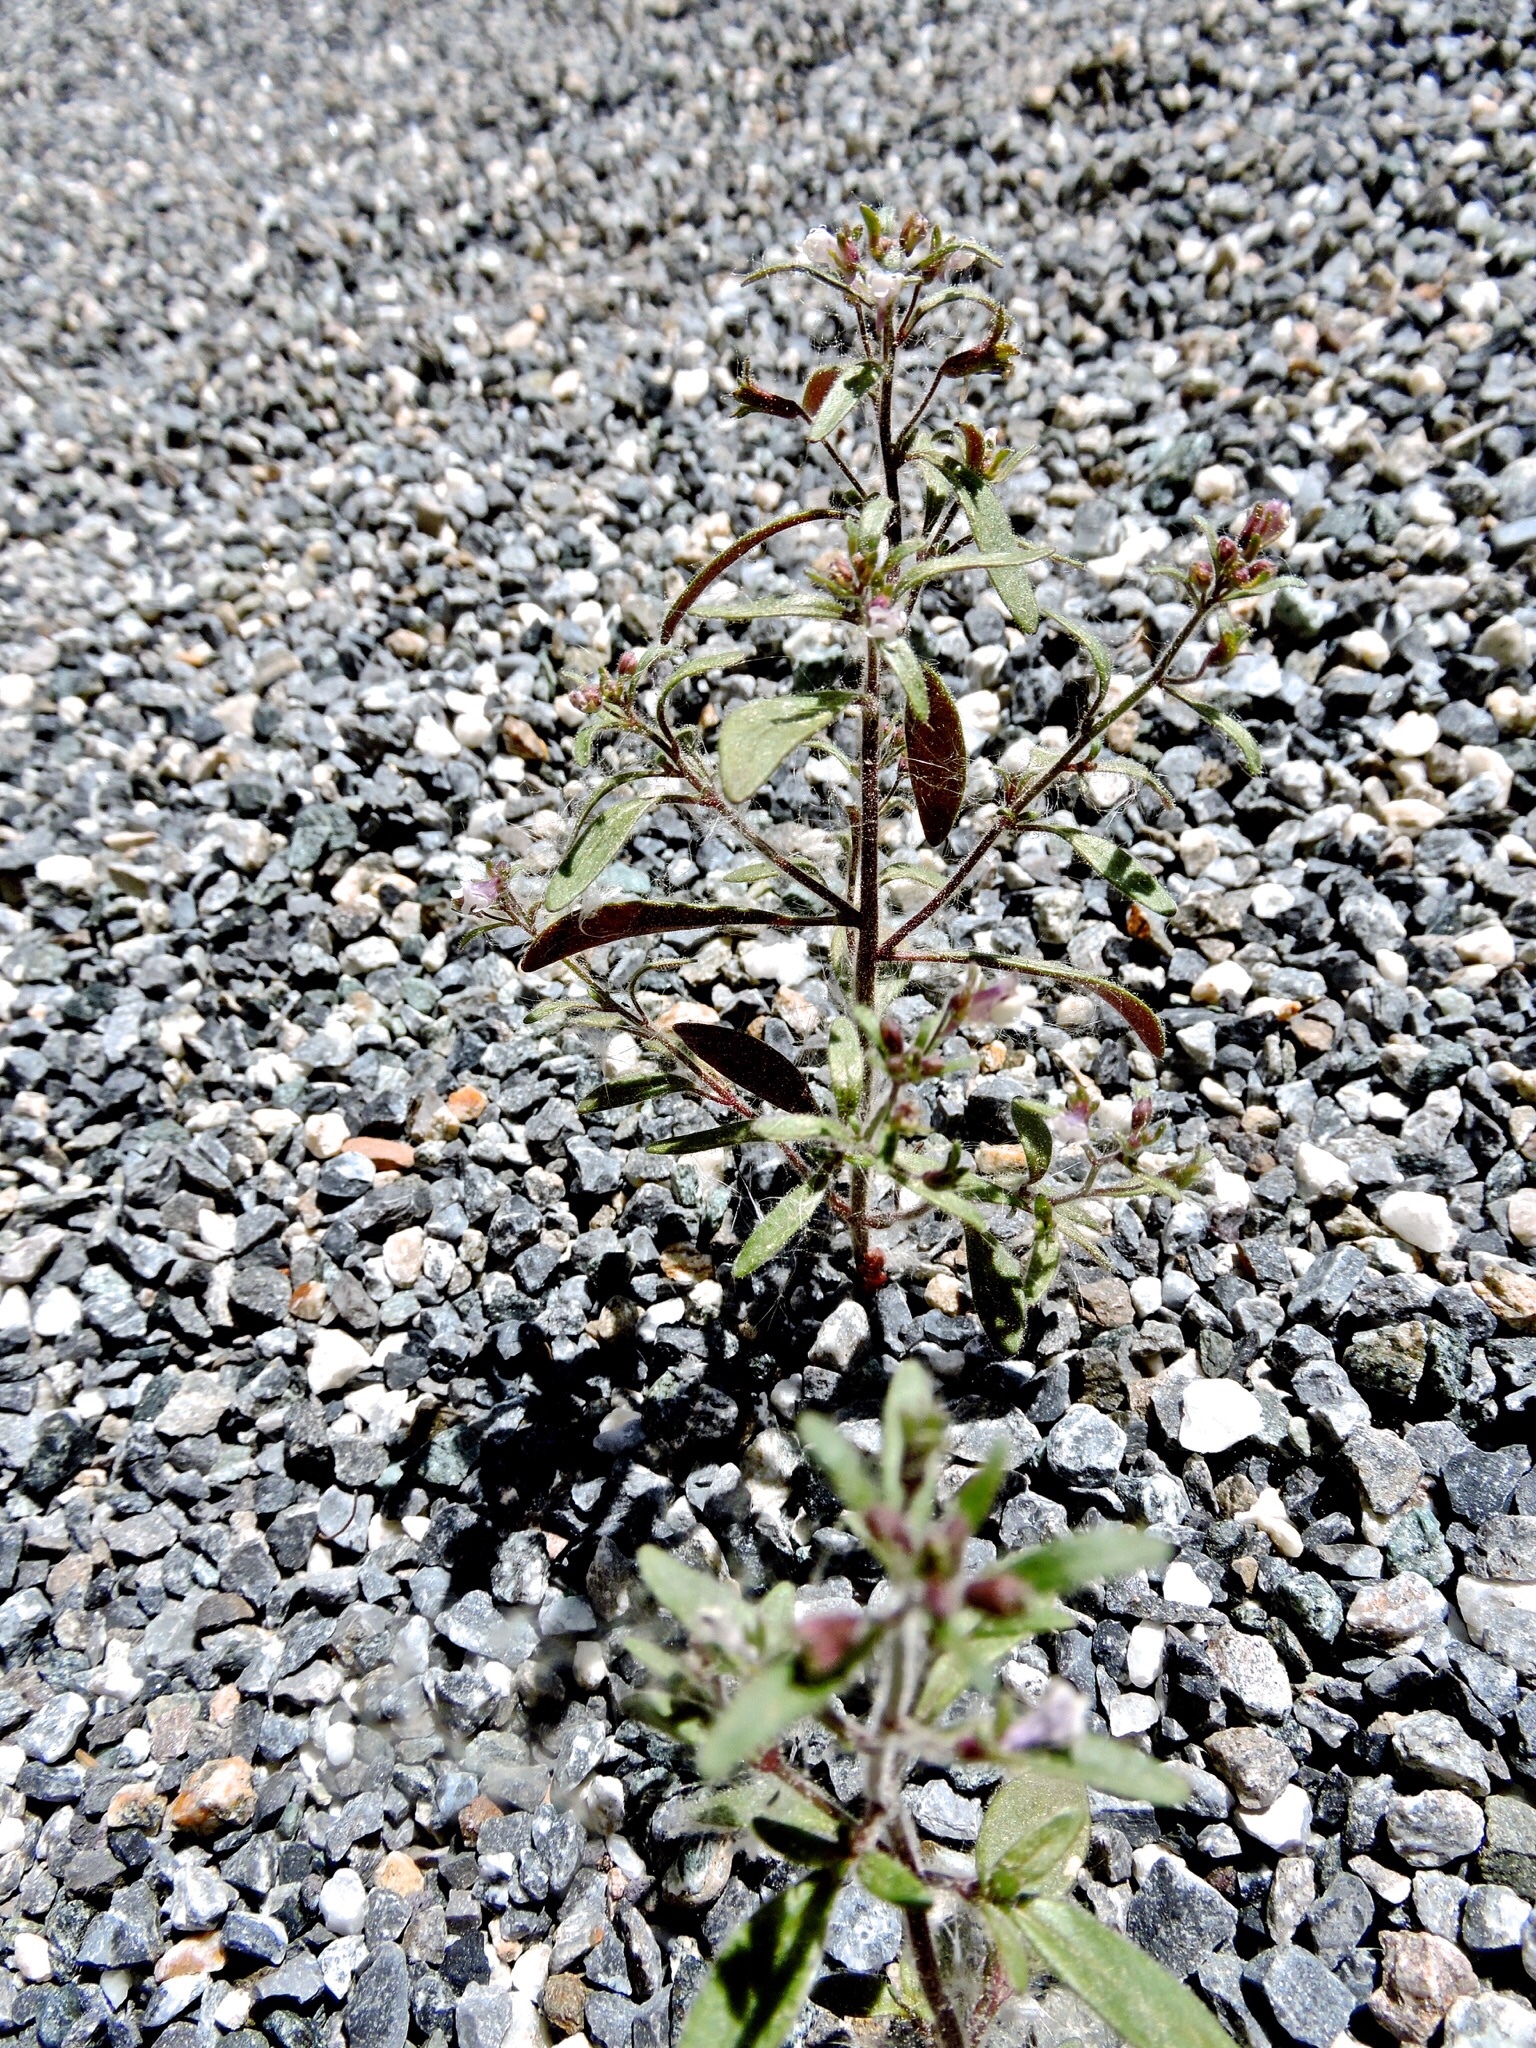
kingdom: Plantae
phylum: Tracheophyta
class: Magnoliopsida
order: Lamiales
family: Plantaginaceae
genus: Chaenorhinum
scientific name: Chaenorhinum minus
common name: Dwarf snapdragon
